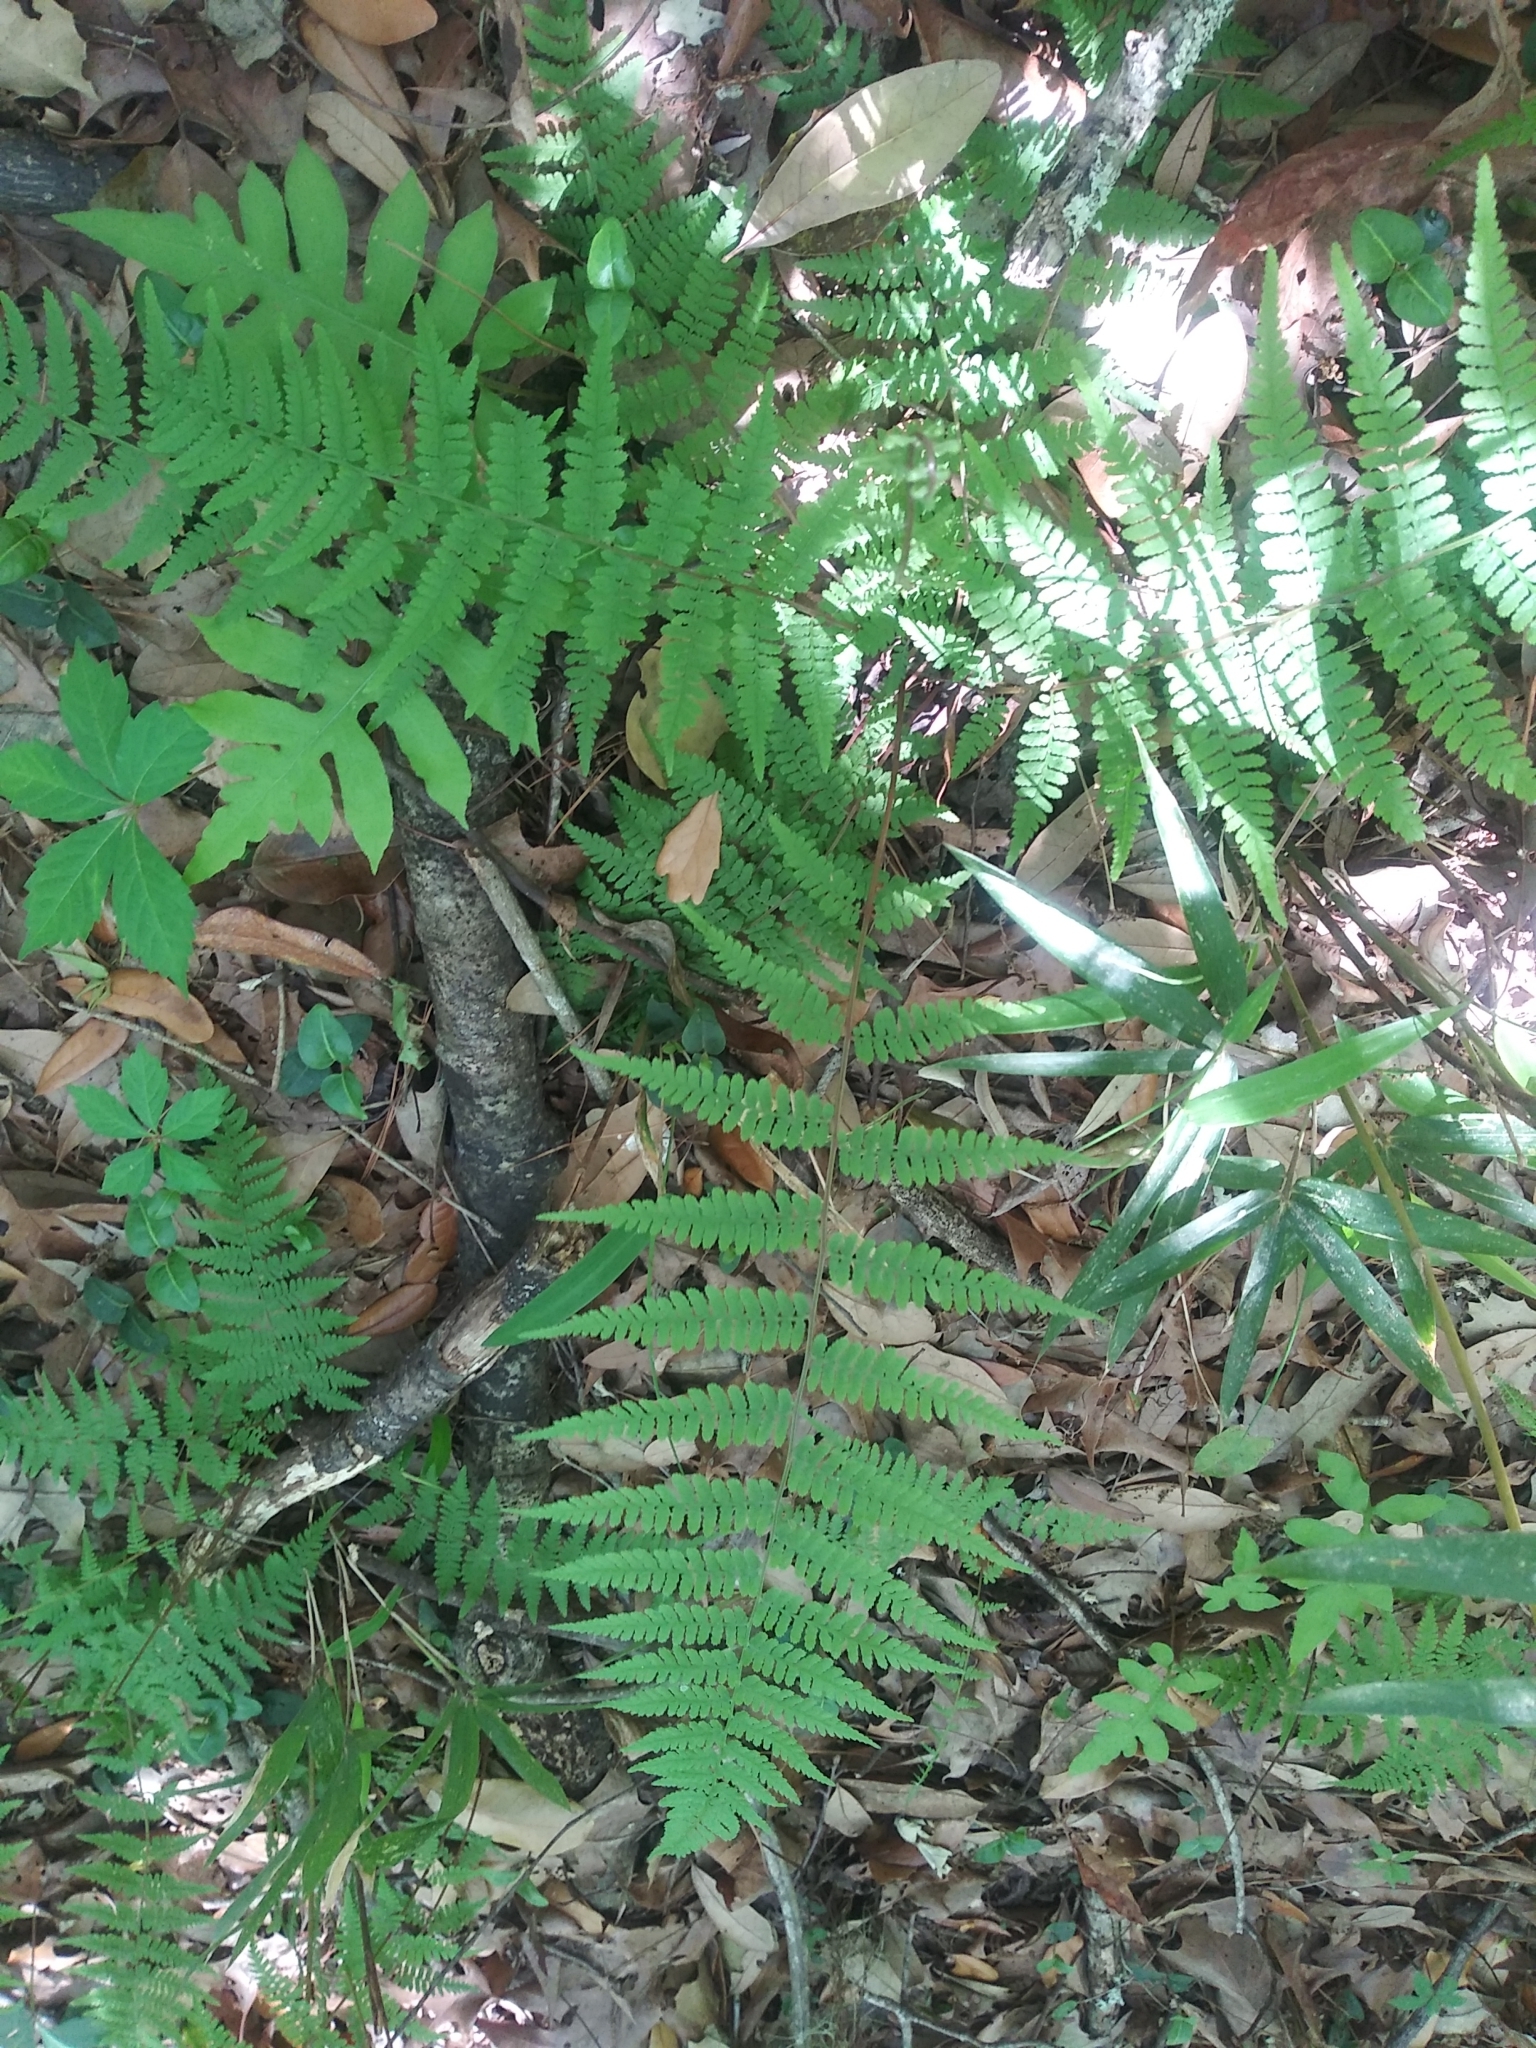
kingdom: Plantae
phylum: Tracheophyta
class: Polypodiopsida
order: Polypodiales
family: Athyriaceae
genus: Athyrium
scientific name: Athyrium asplenioides
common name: Southern lady fern
